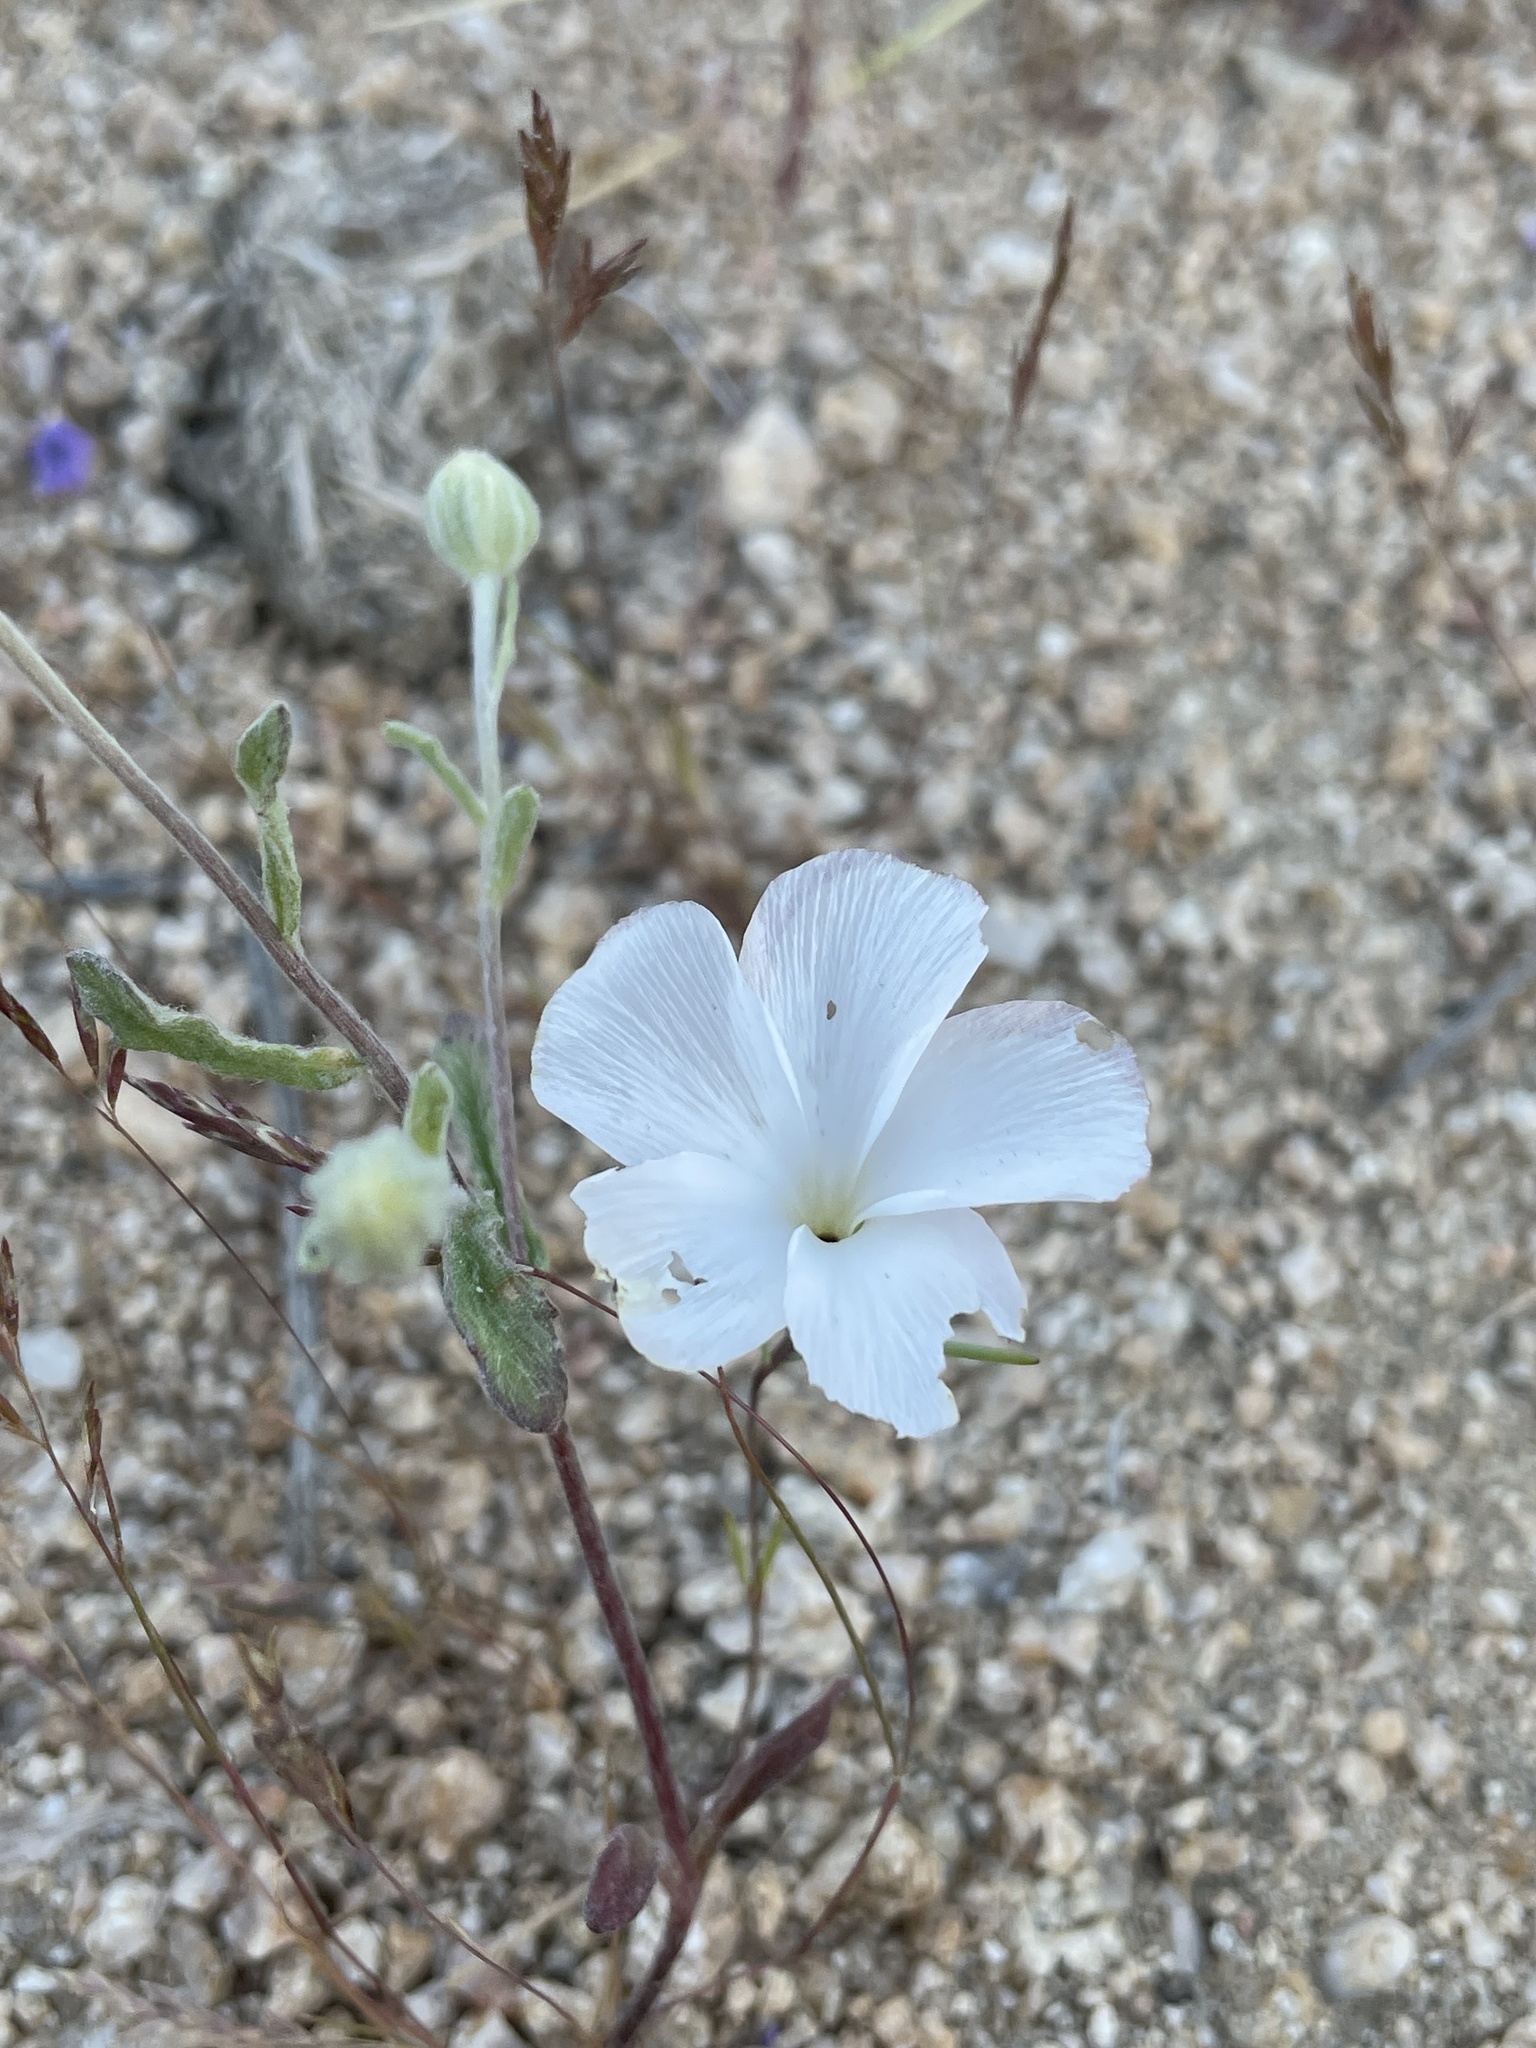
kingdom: Plantae
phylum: Tracheophyta
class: Magnoliopsida
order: Ericales
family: Polemoniaceae
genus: Linanthus
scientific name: Linanthus dichotomus
